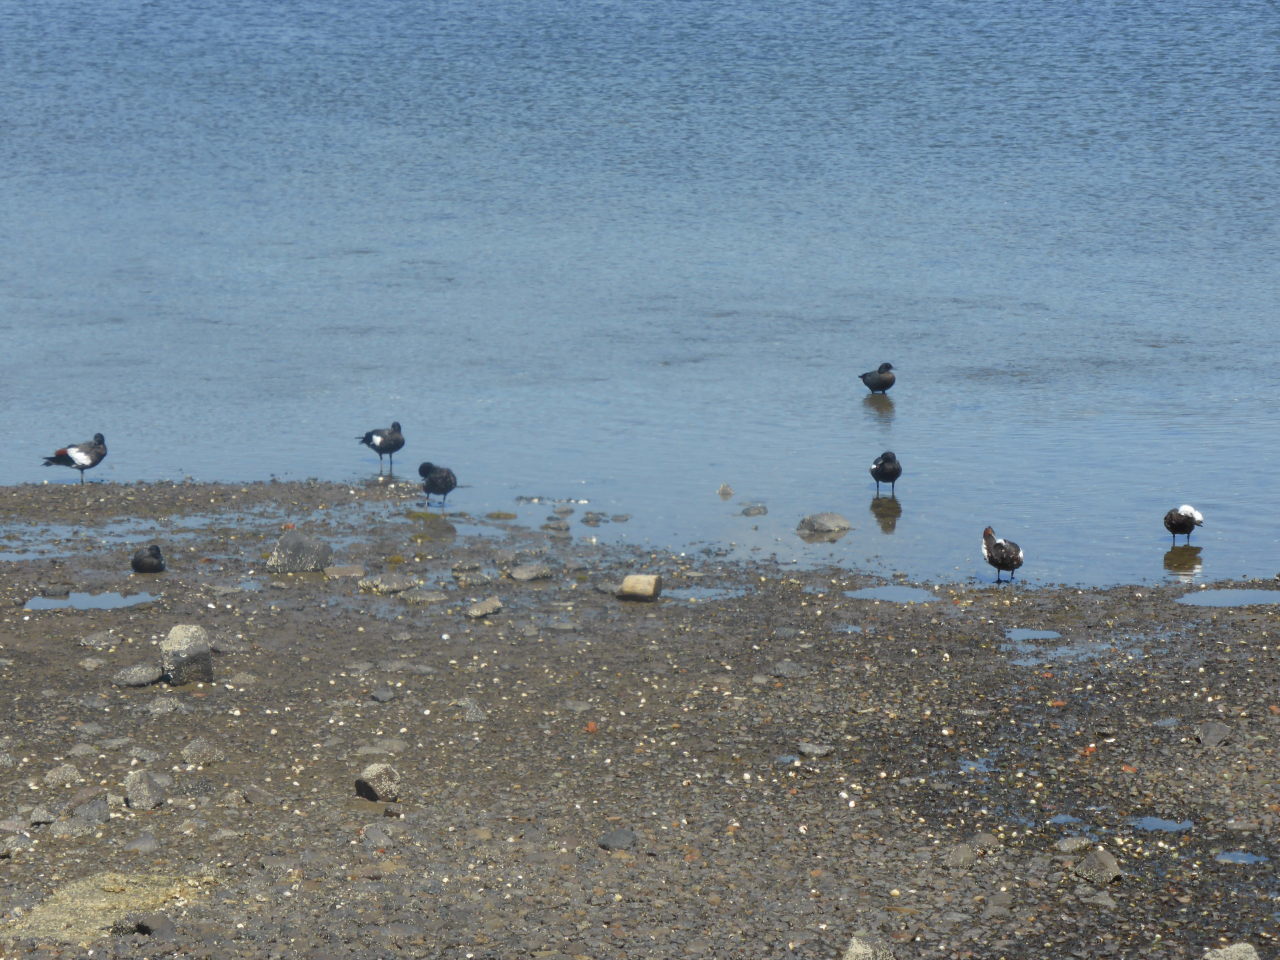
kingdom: Animalia
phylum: Chordata
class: Aves
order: Anseriformes
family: Anatidae
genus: Tadorna
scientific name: Tadorna variegata
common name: Paradise shelduck
